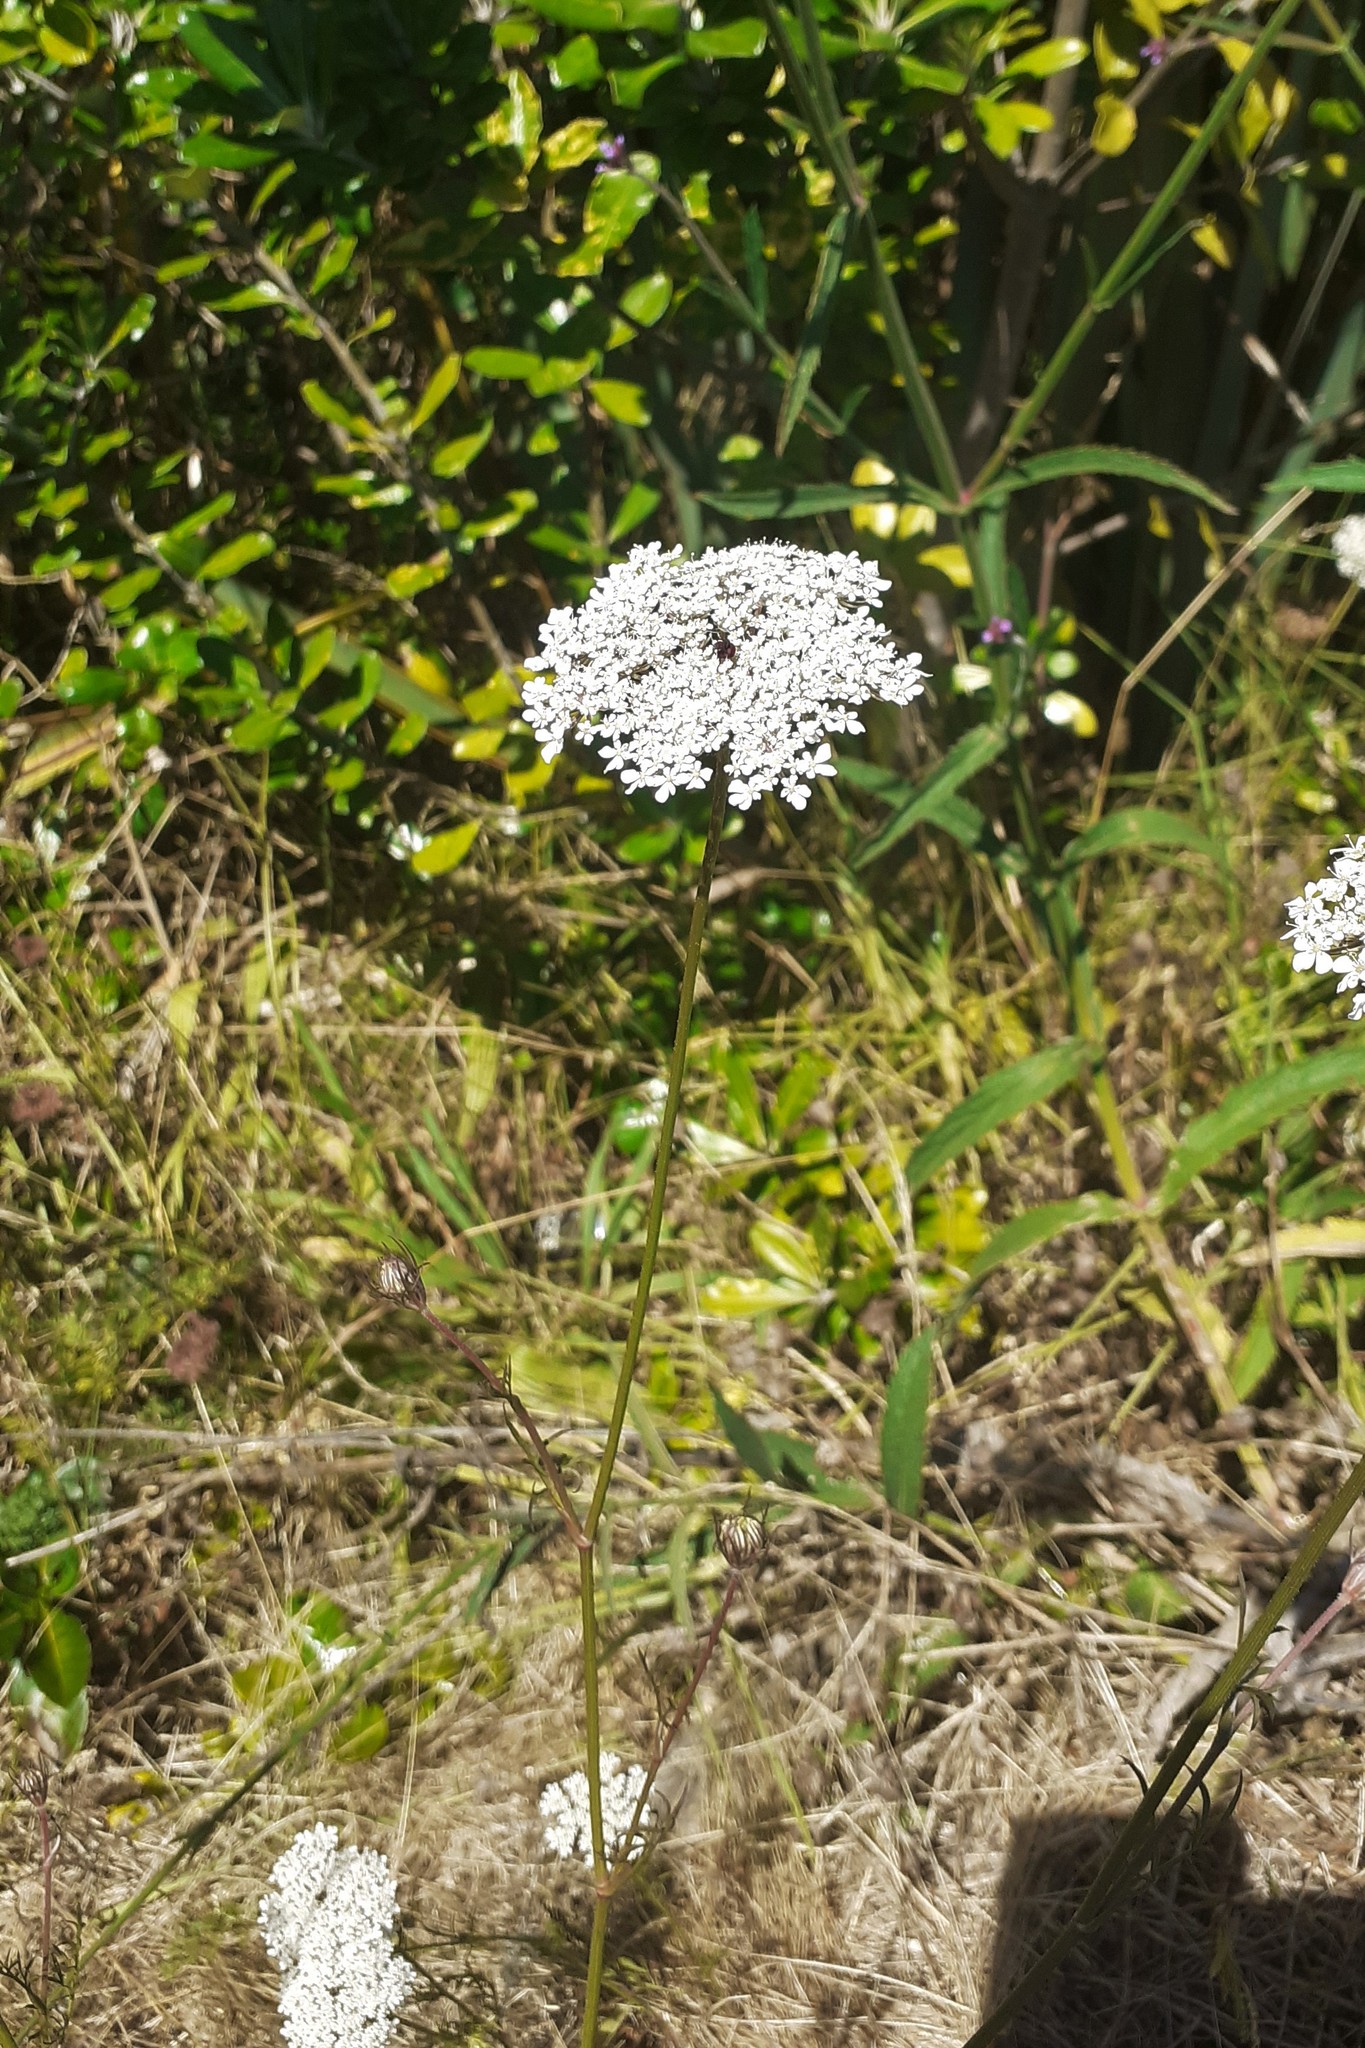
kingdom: Plantae
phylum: Tracheophyta
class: Magnoliopsida
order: Apiales
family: Apiaceae
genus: Daucus
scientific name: Daucus carota
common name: Wild carrot
